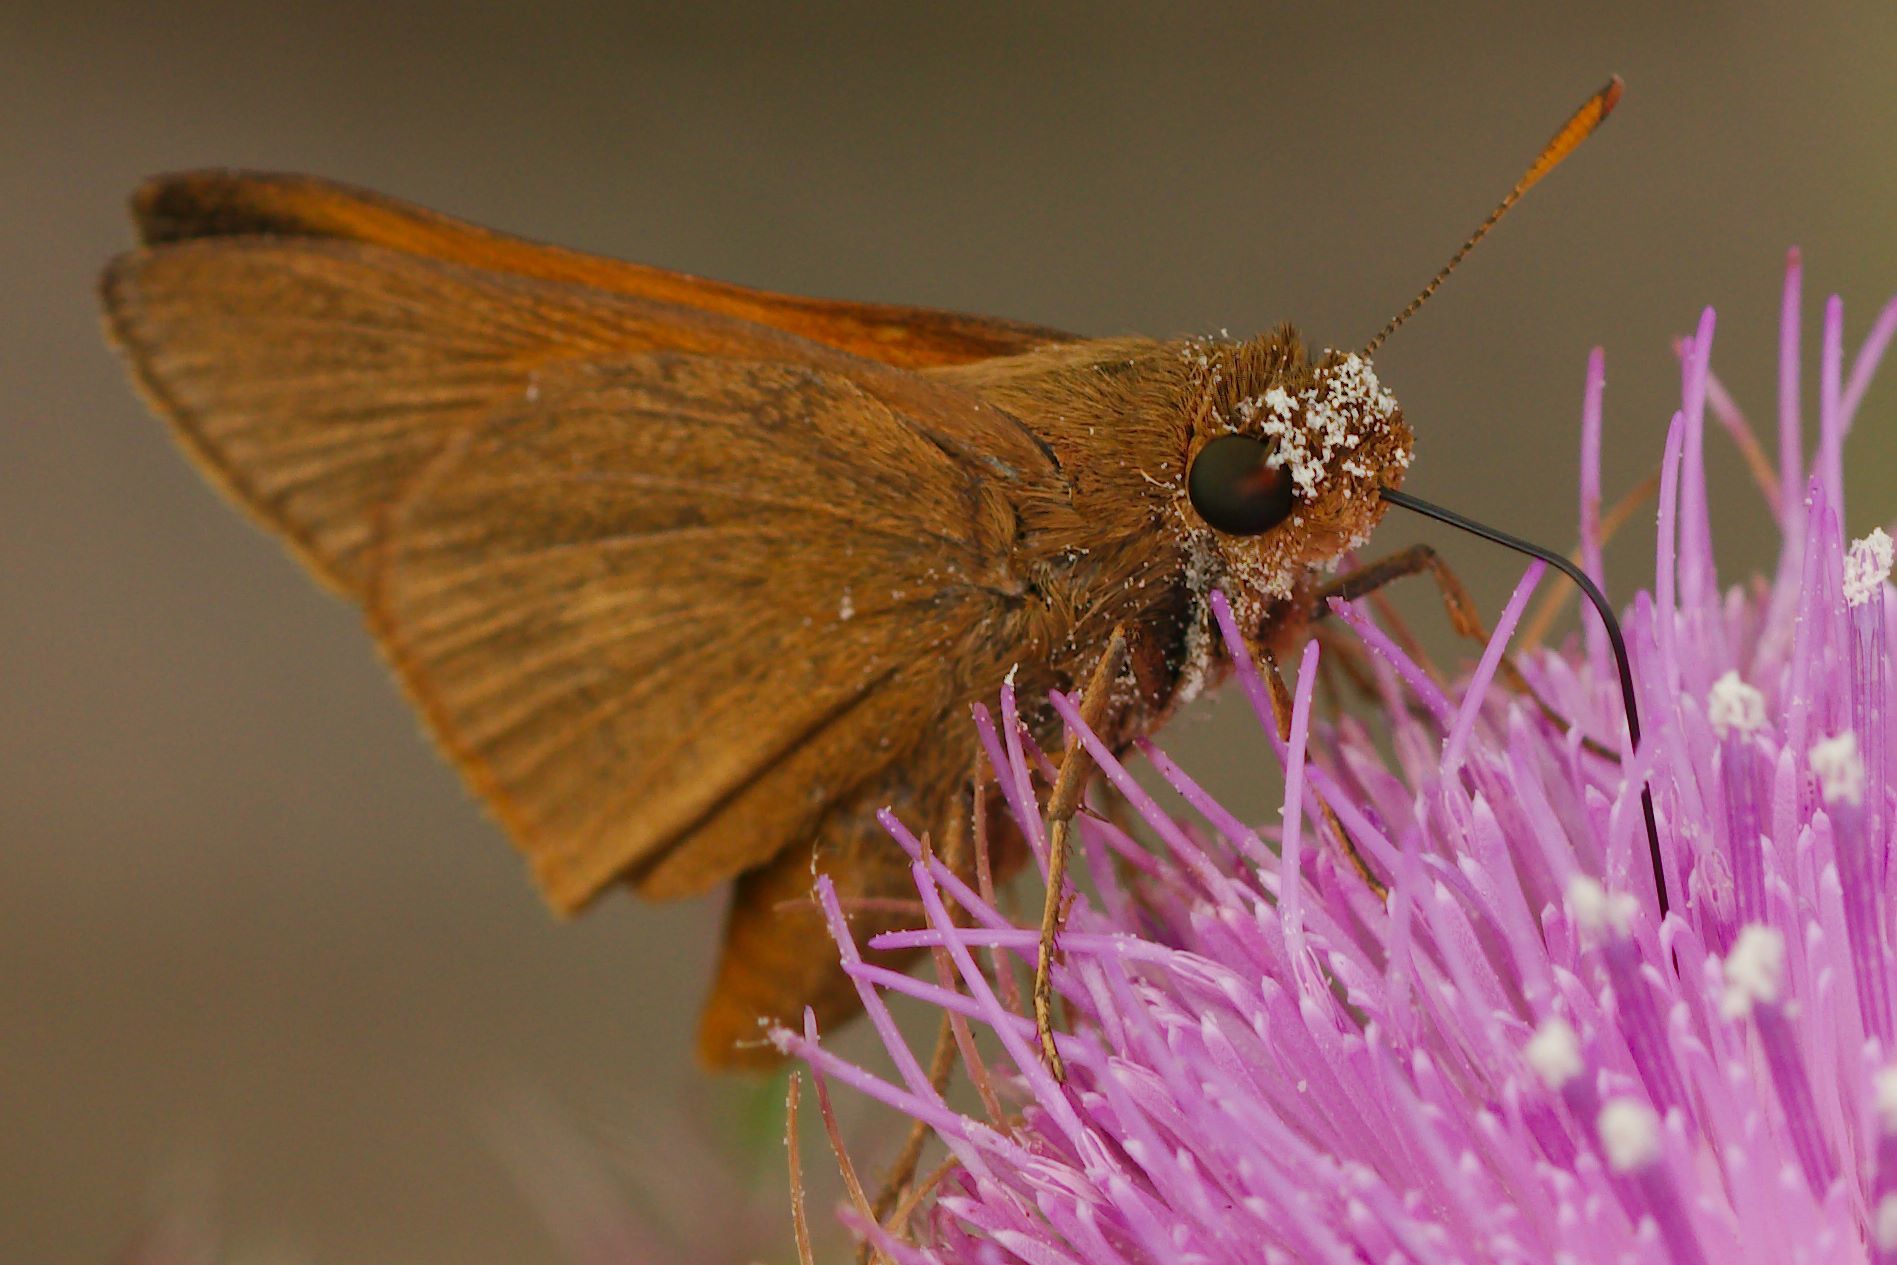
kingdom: Animalia
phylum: Arthropoda
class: Insecta
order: Lepidoptera
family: Hesperiidae
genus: Euphyes
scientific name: Euphyes pilatka
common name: Palatka skipper
